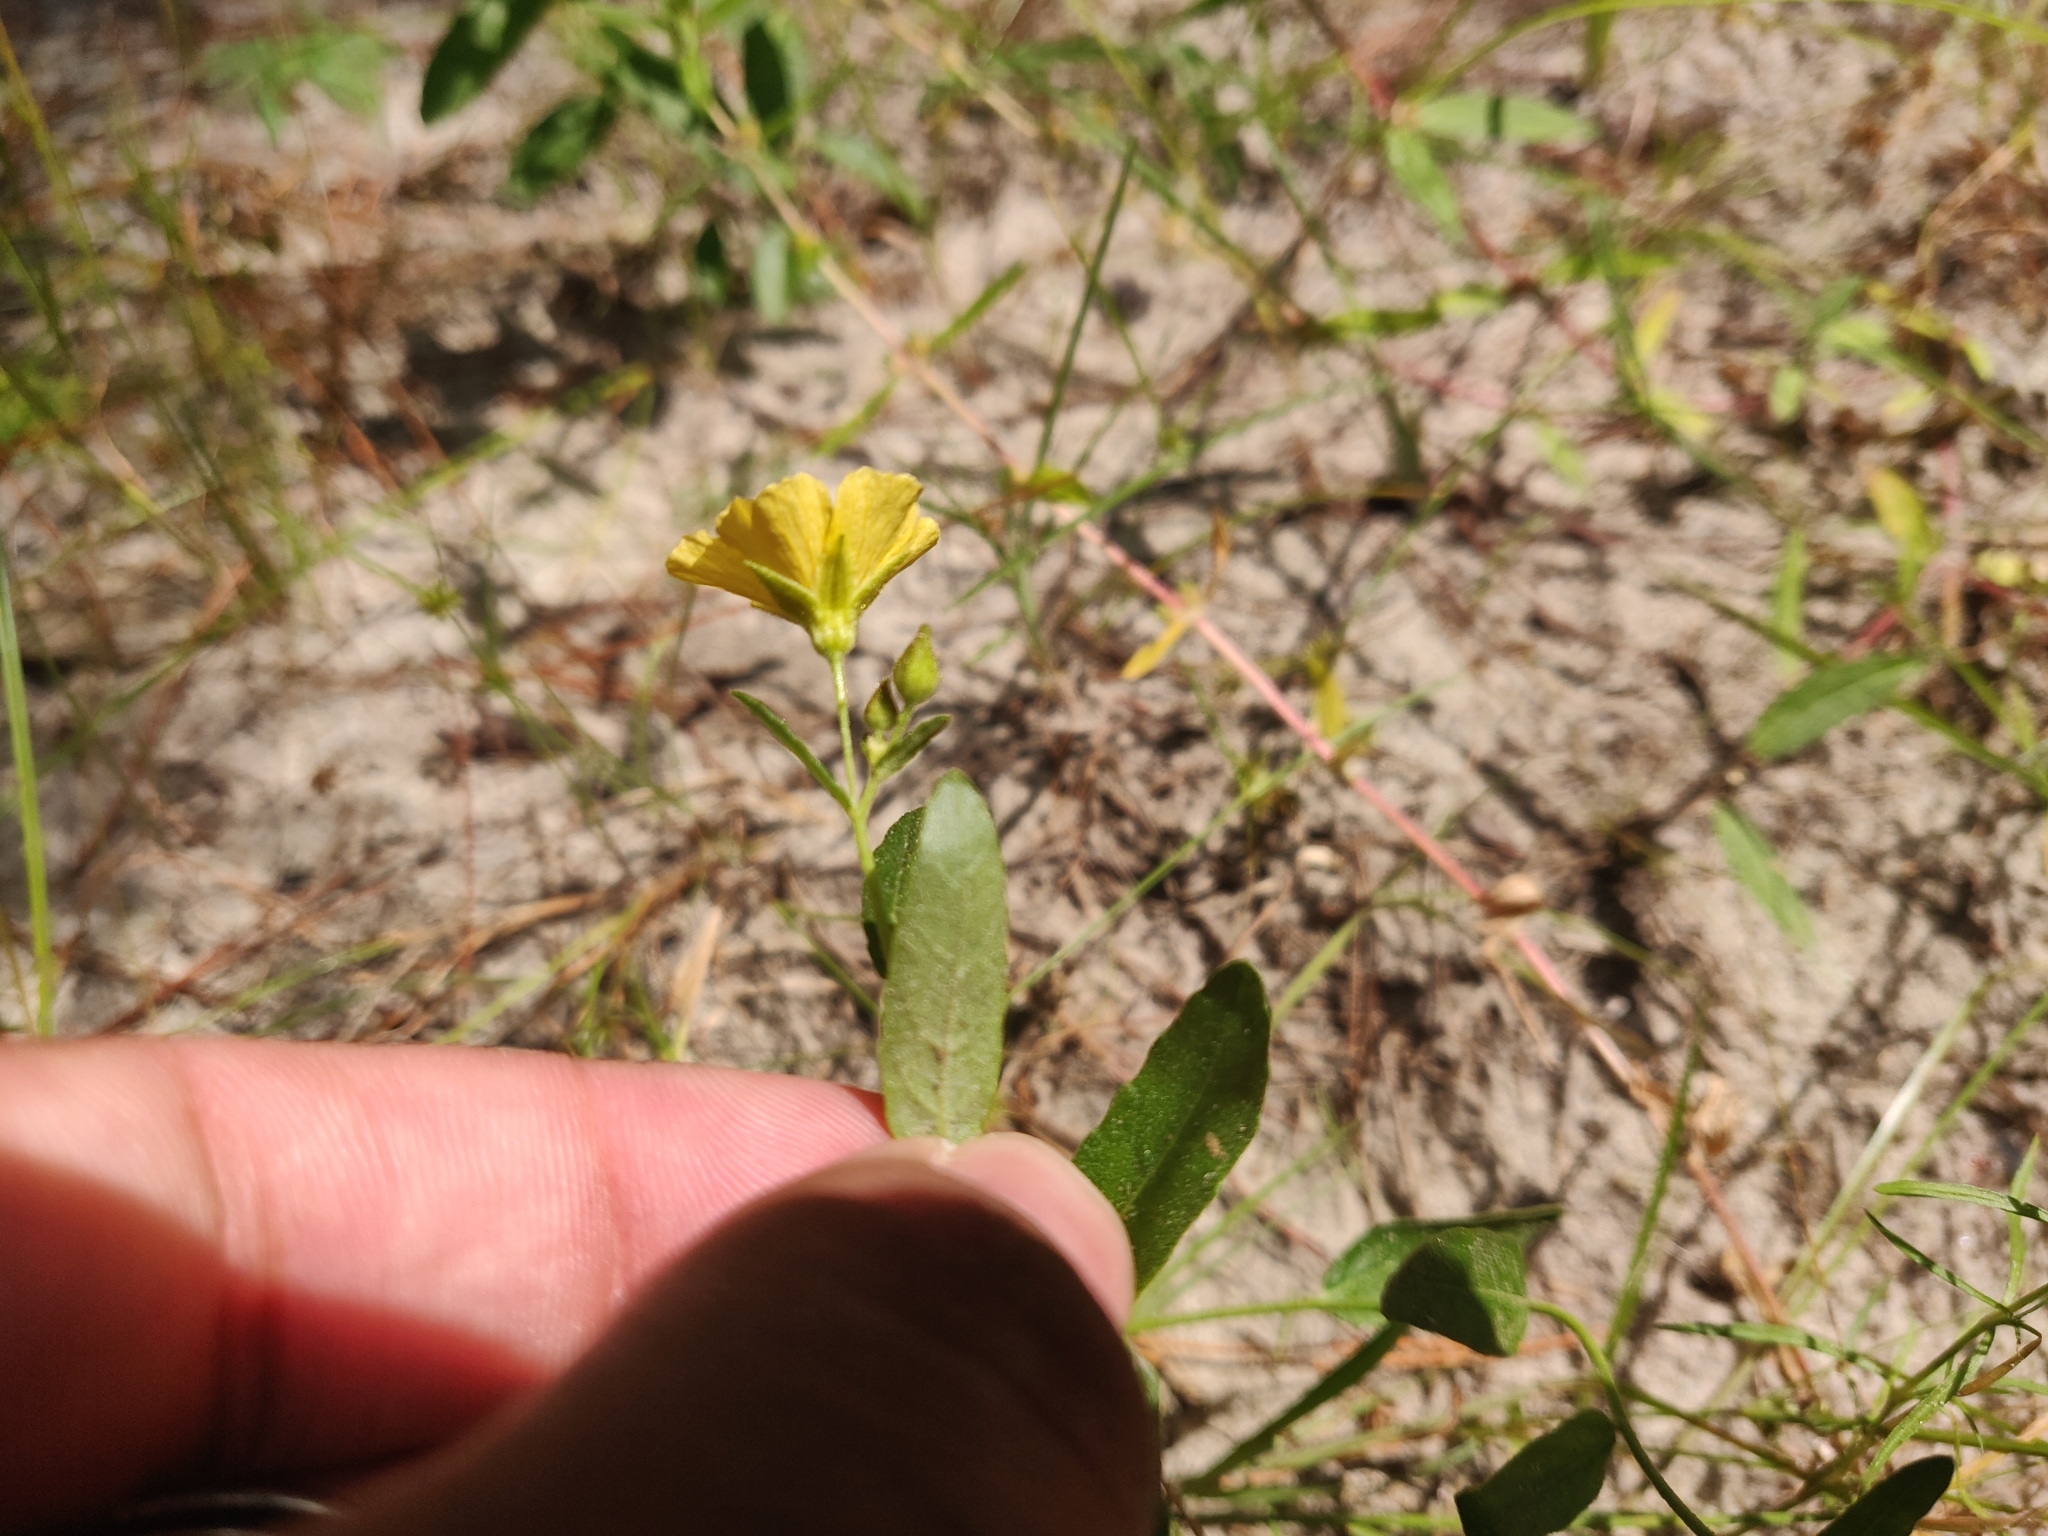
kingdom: Plantae
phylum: Tracheophyta
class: Magnoliopsida
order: Malpighiales
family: Turneraceae
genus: Piriqueta
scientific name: Piriqueta cistoides
